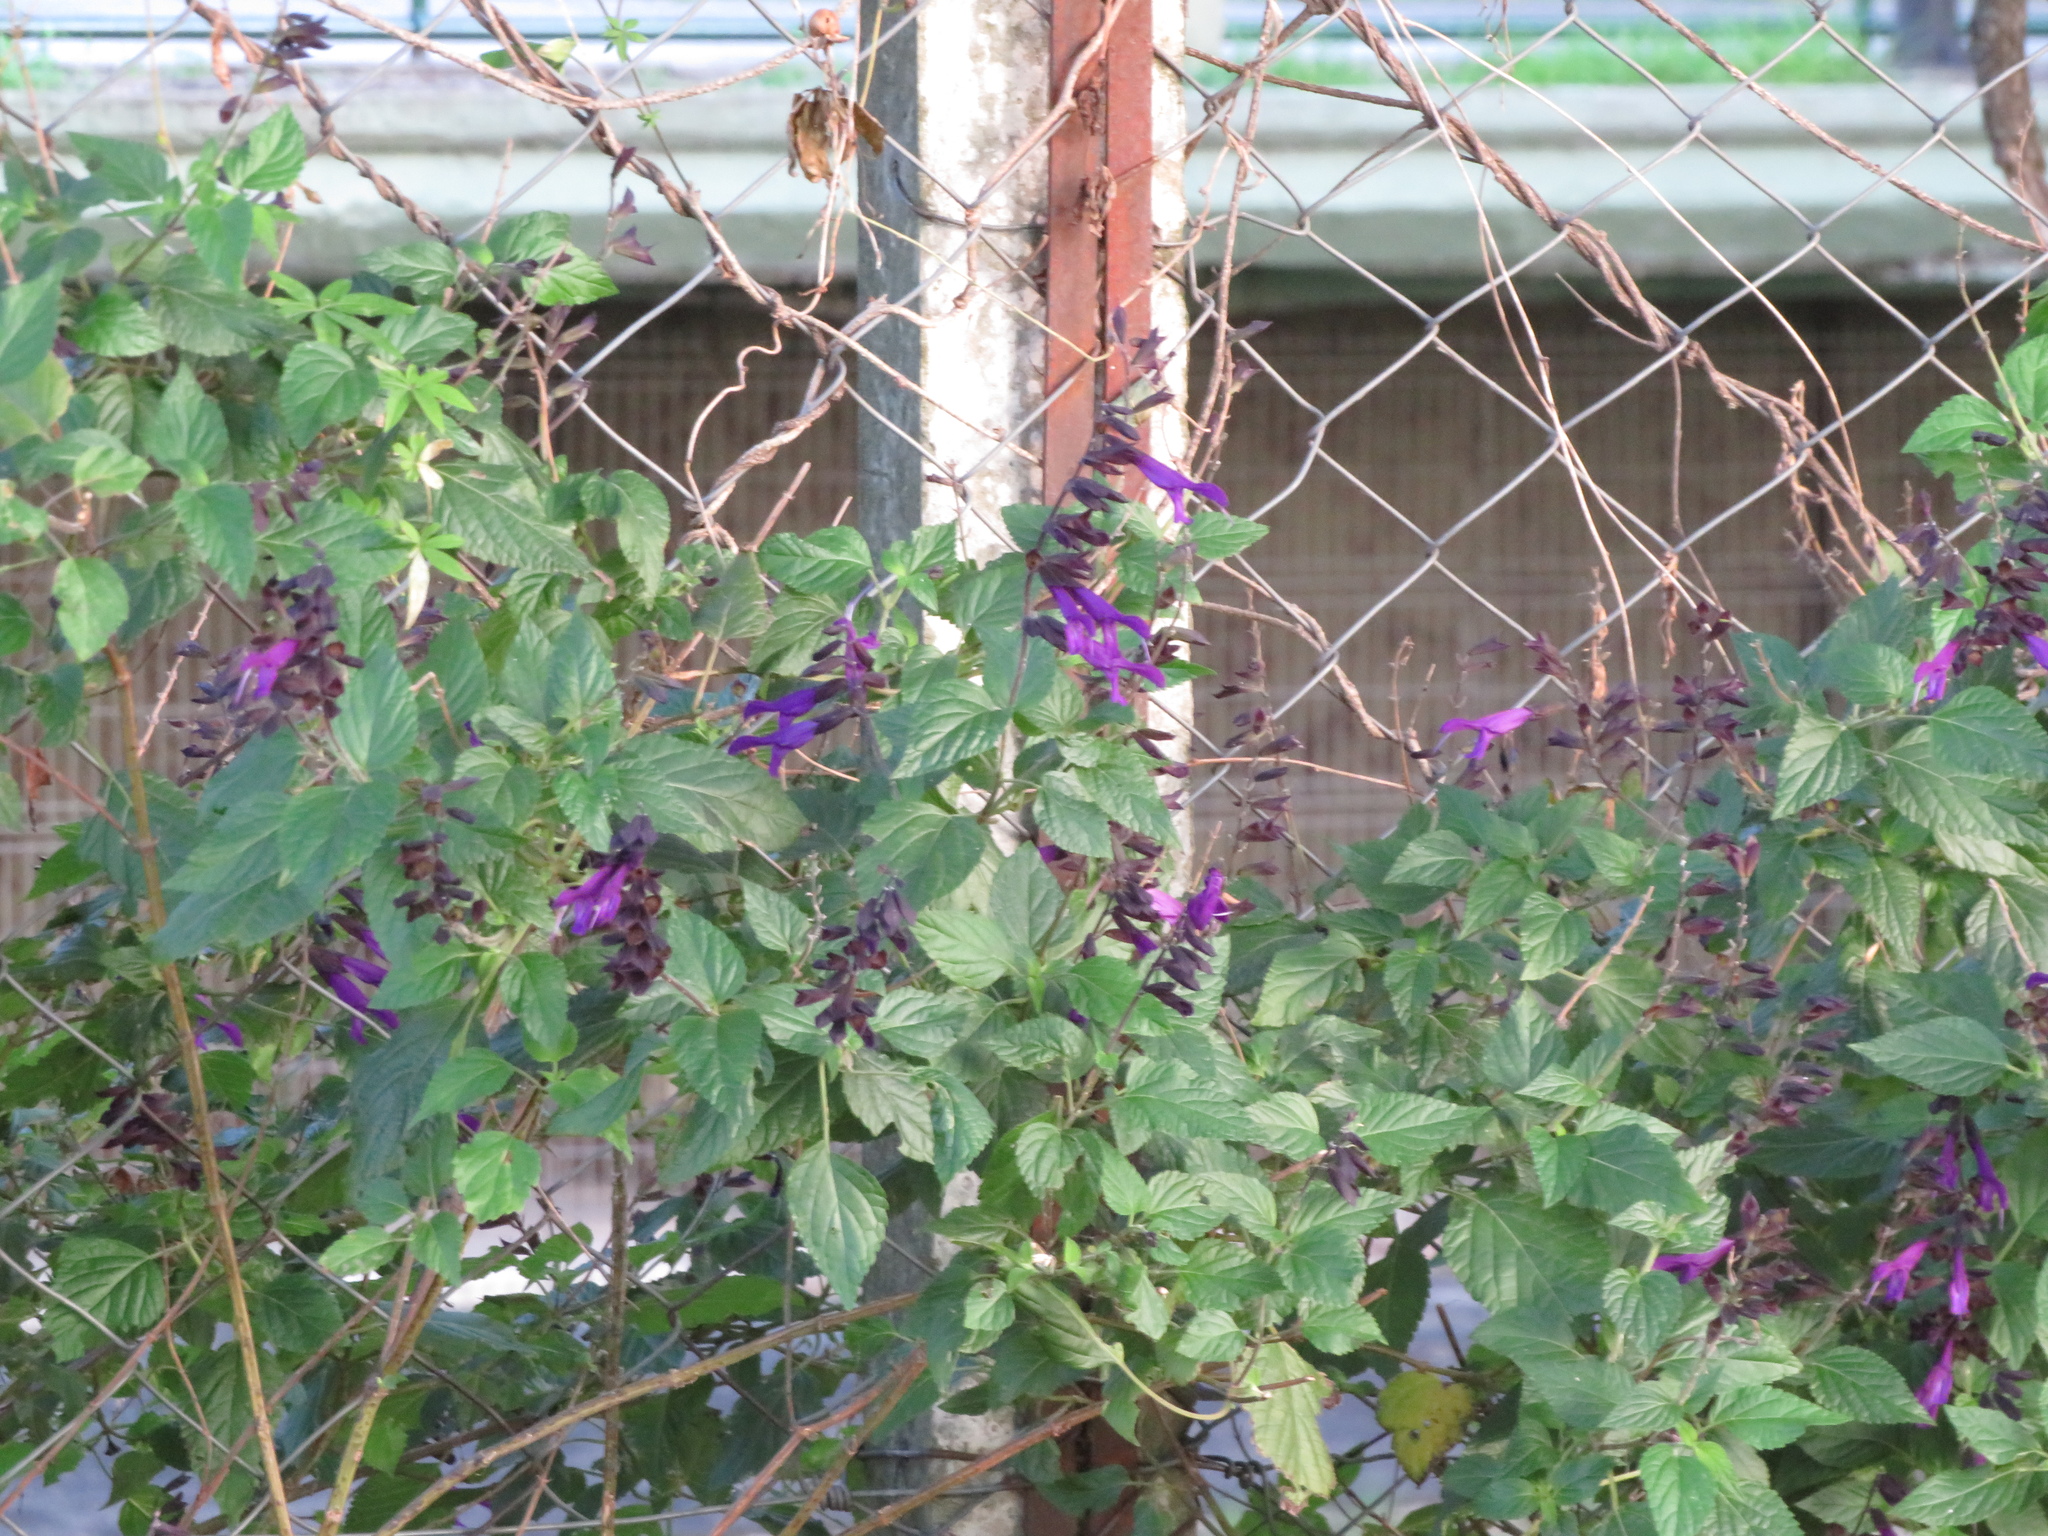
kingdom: Plantae
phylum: Tracheophyta
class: Magnoliopsida
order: Lamiales
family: Lamiaceae
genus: Salvia
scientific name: Salvia guaranitica
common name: Anise-scented sage
